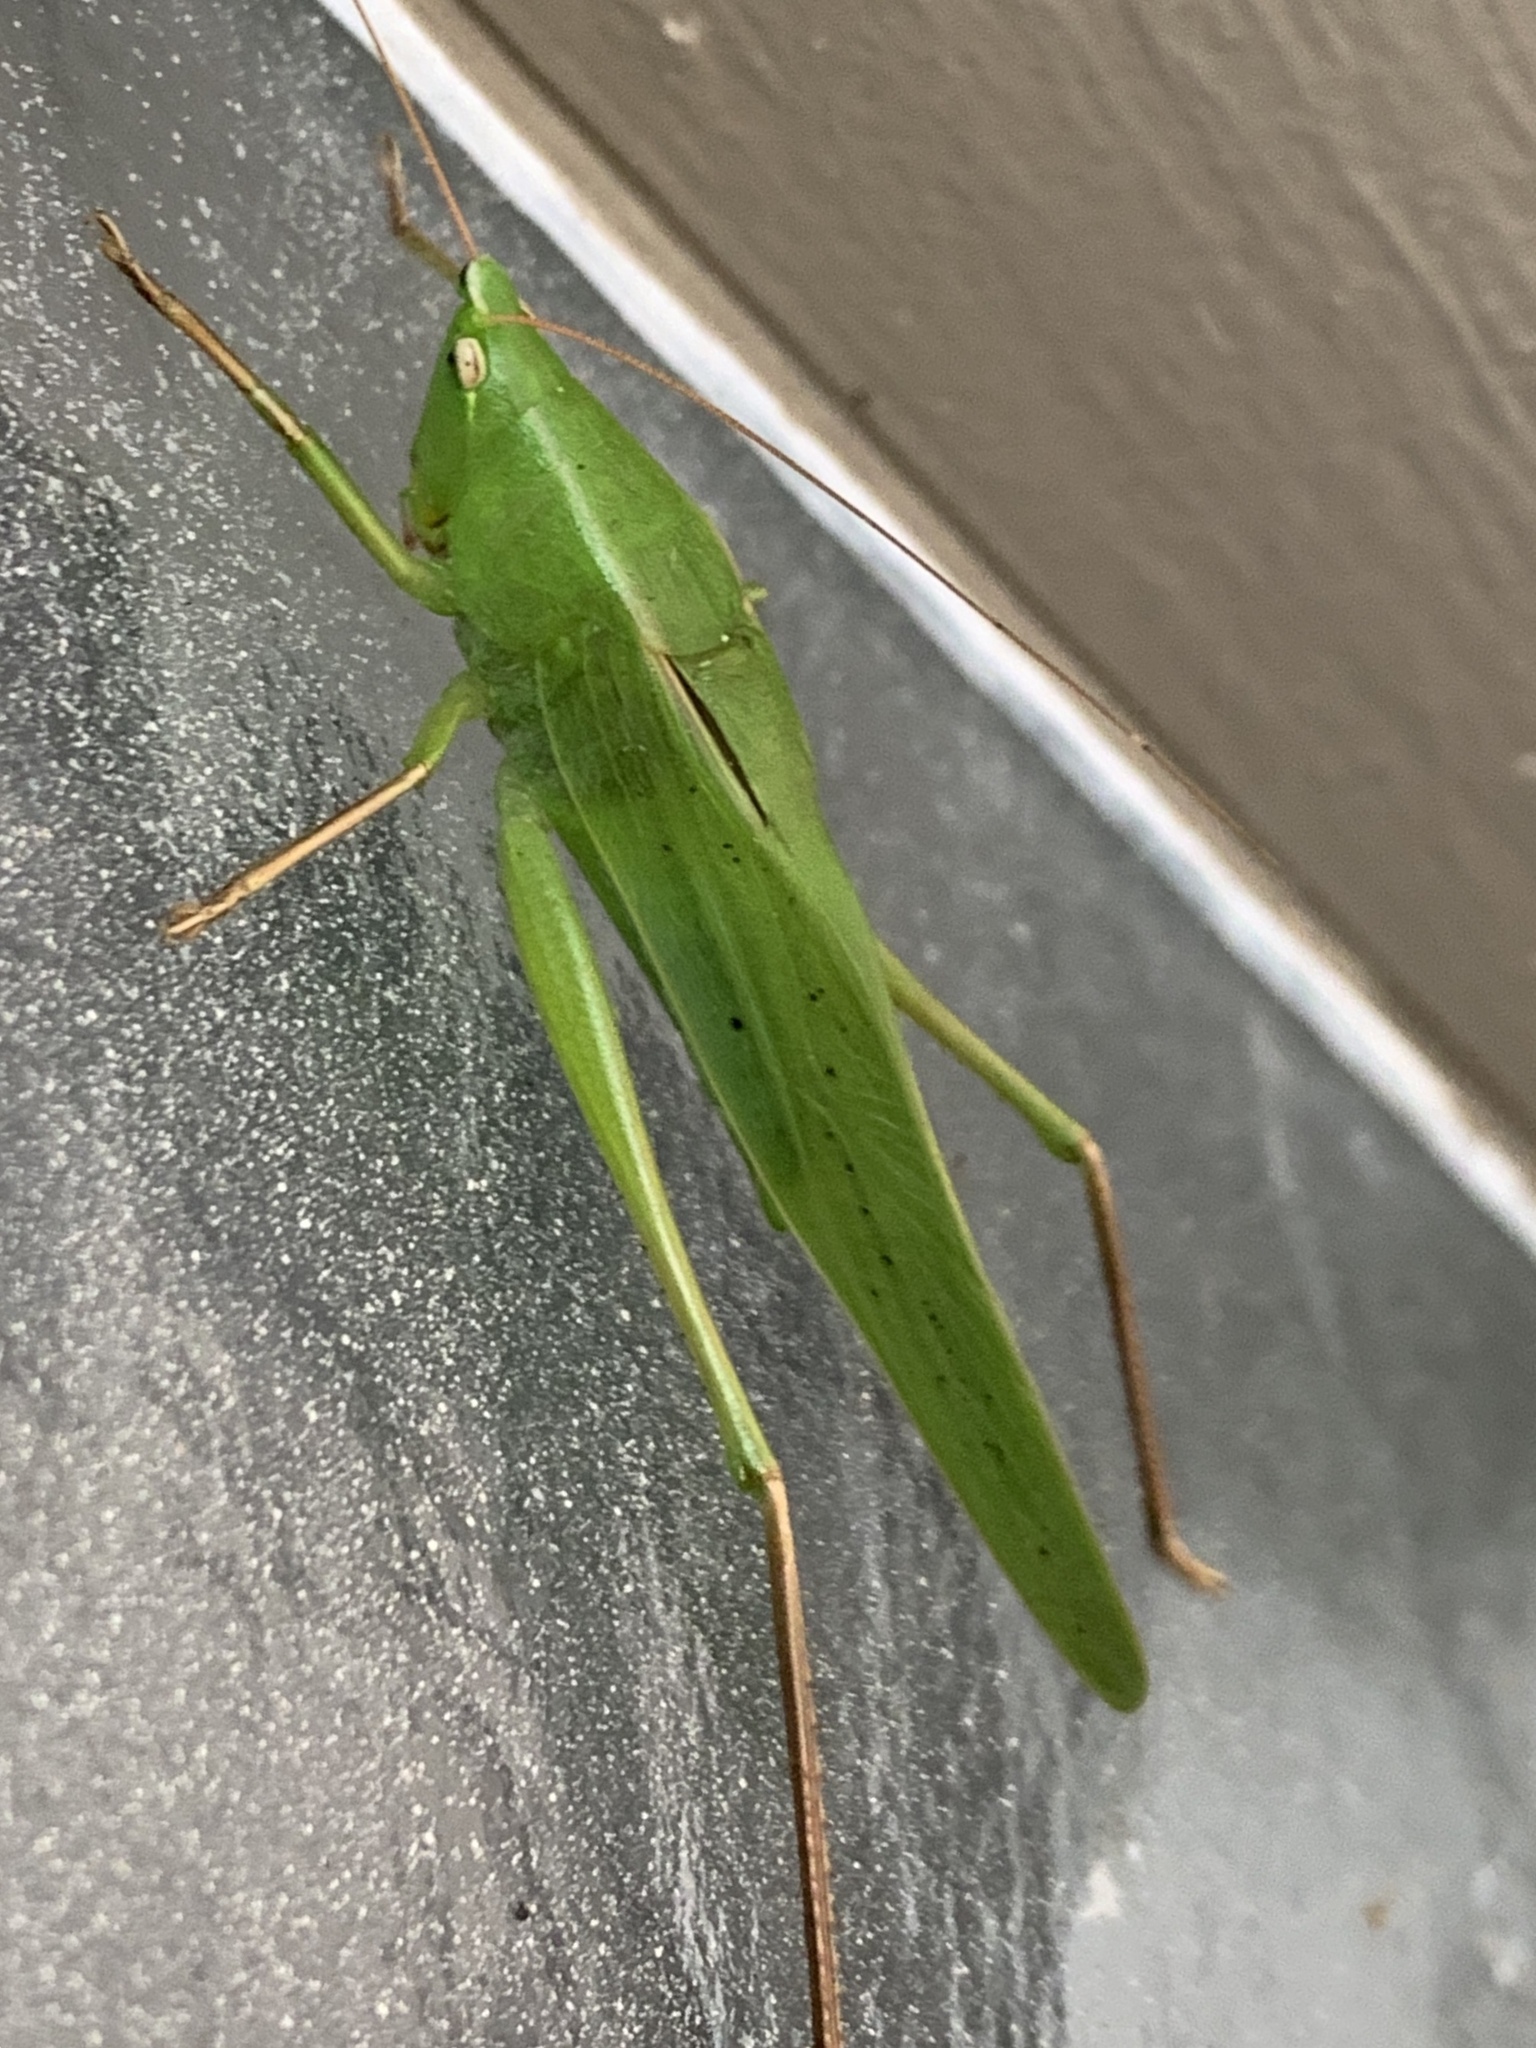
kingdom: Animalia
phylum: Arthropoda
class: Insecta
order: Orthoptera
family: Tettigoniidae
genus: Neoconocephalus
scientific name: Neoconocephalus triops
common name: Broad-tipped conehead
